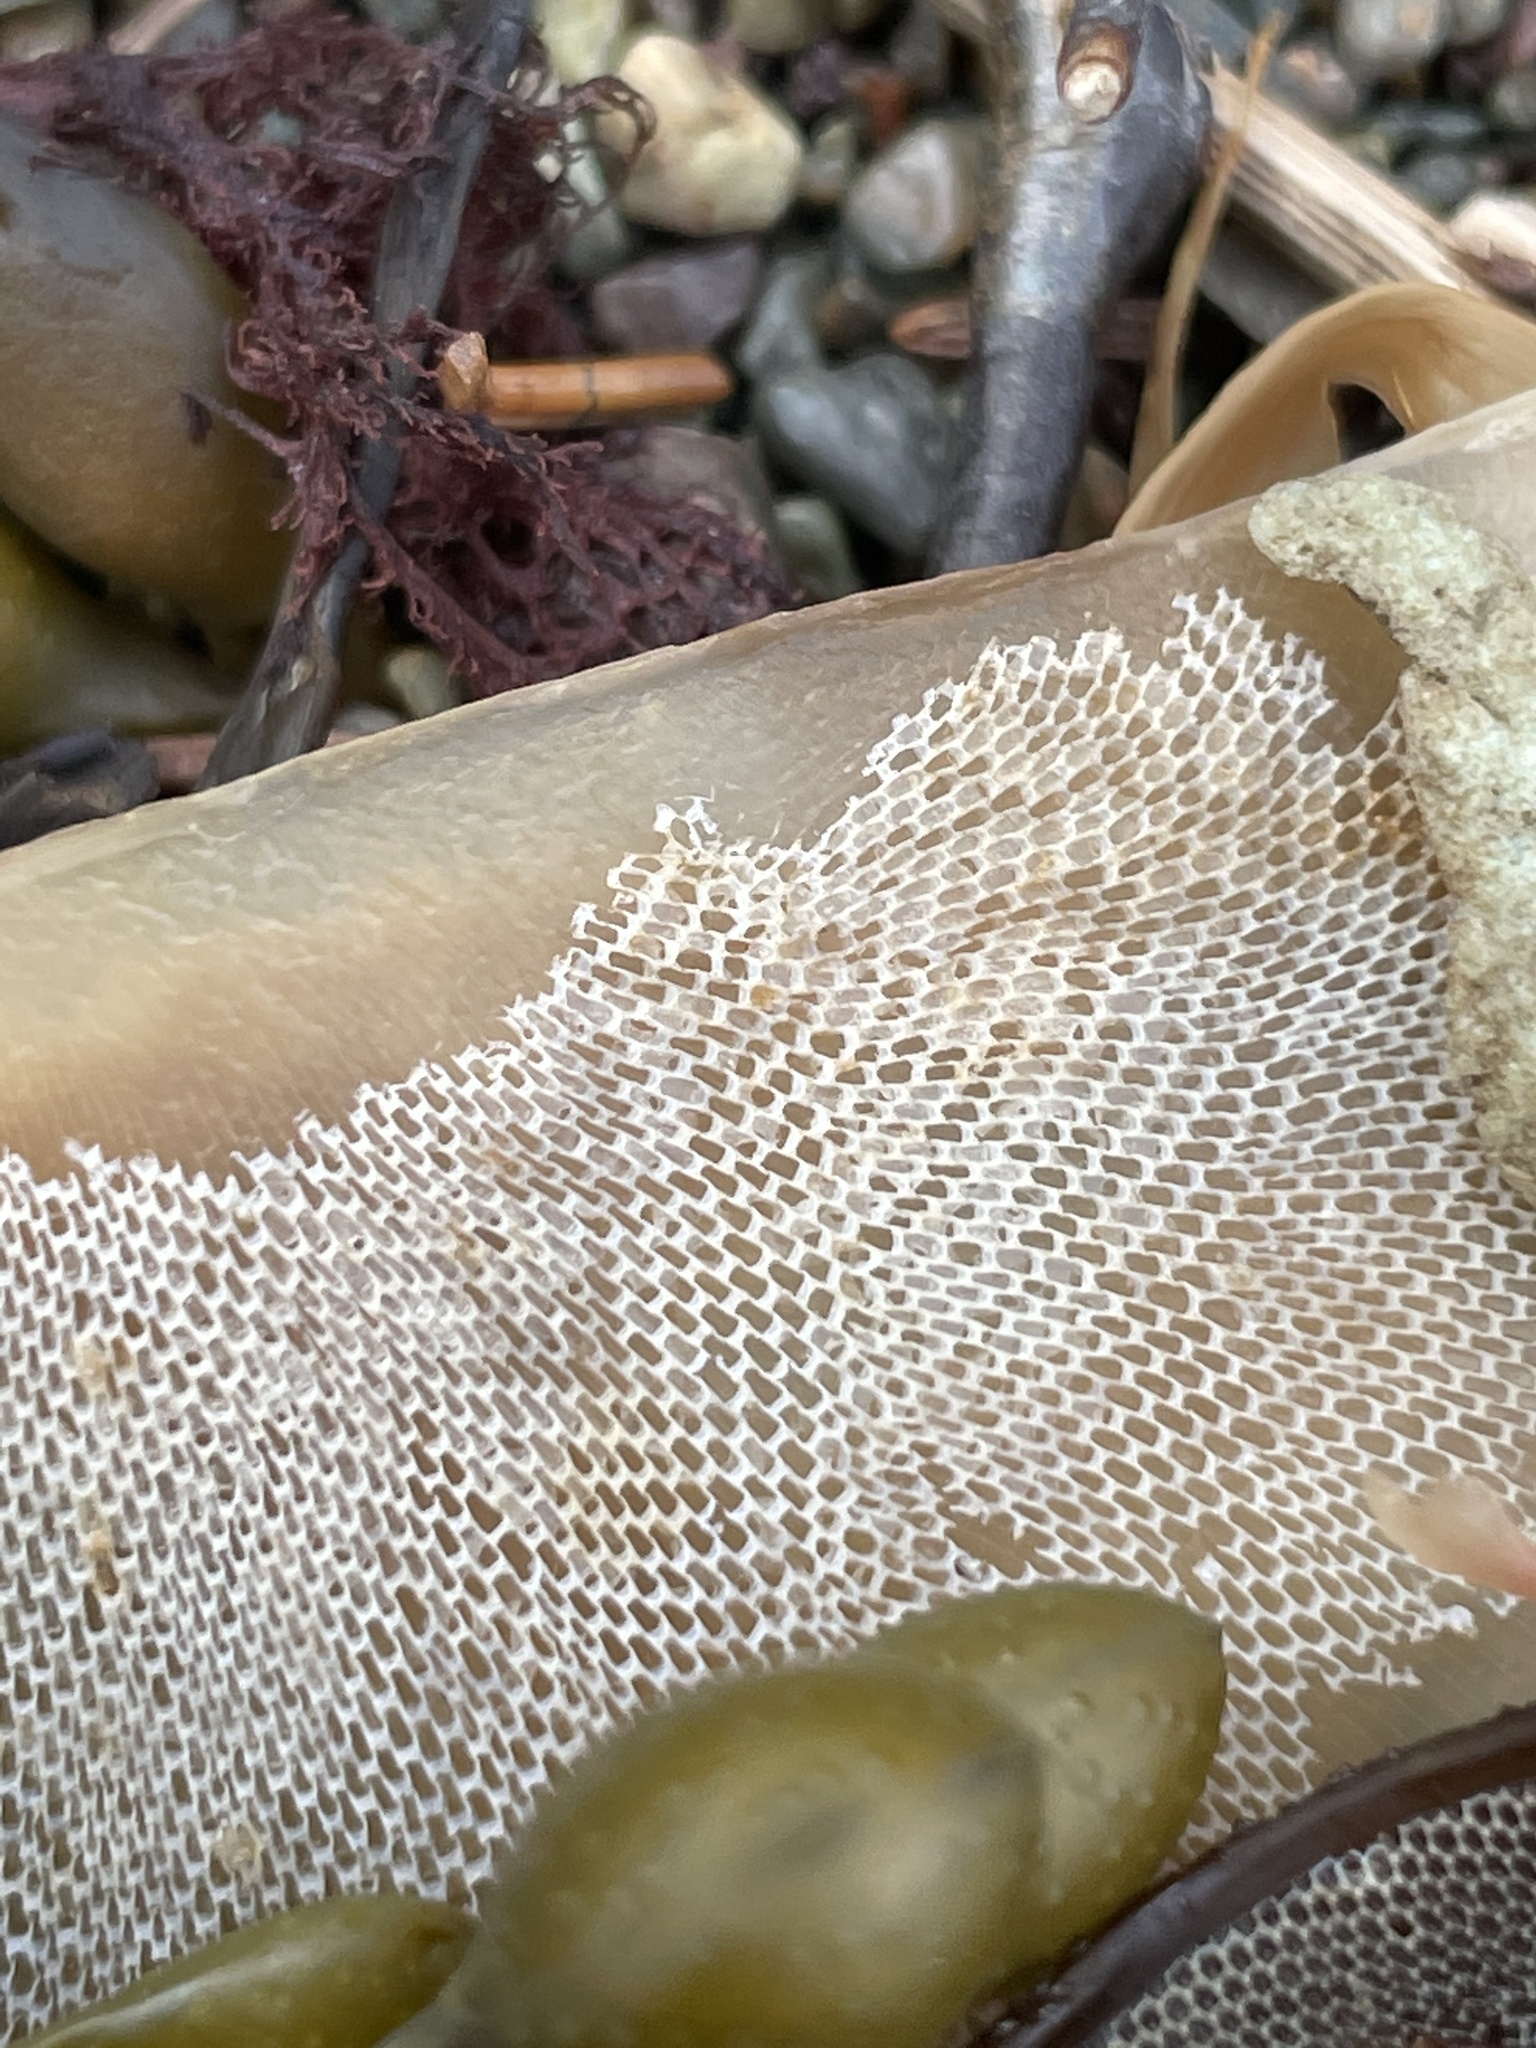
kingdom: Animalia
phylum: Bryozoa
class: Gymnolaemata
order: Cheilostomatida
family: Membraniporidae
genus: Membranipora
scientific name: Membranipora membranacea
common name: Sea mat
